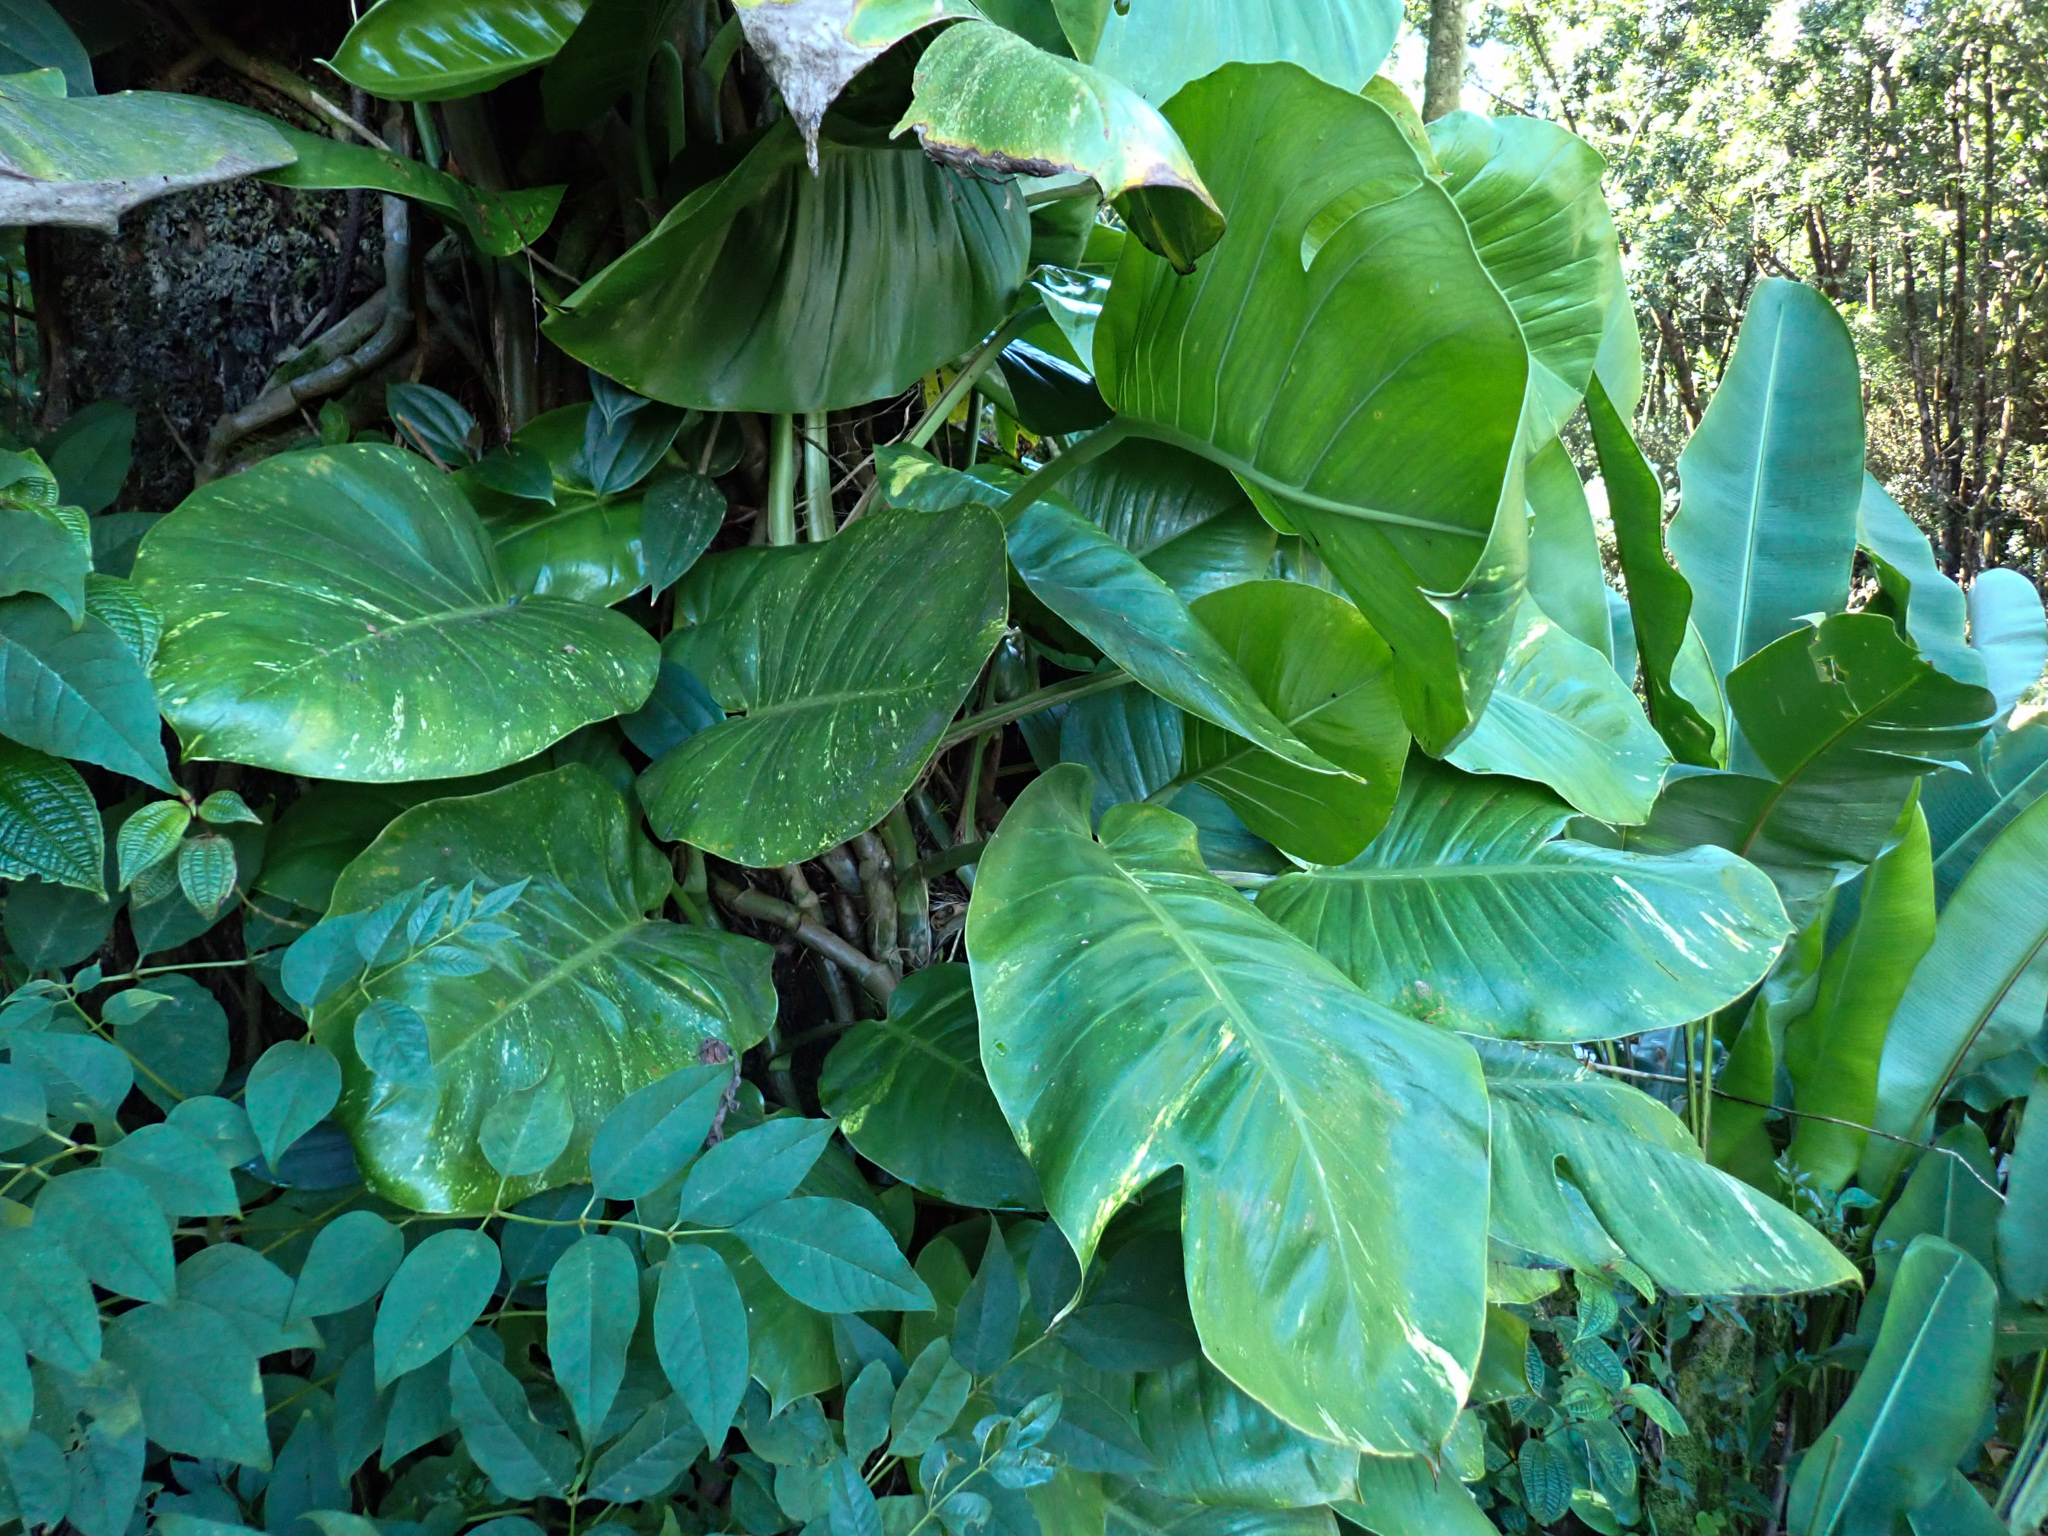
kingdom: Plantae
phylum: Tracheophyta
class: Liliopsida
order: Alismatales
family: Araceae
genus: Epipremnum
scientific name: Epipremnum aureum
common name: Golden hunter's-robe
